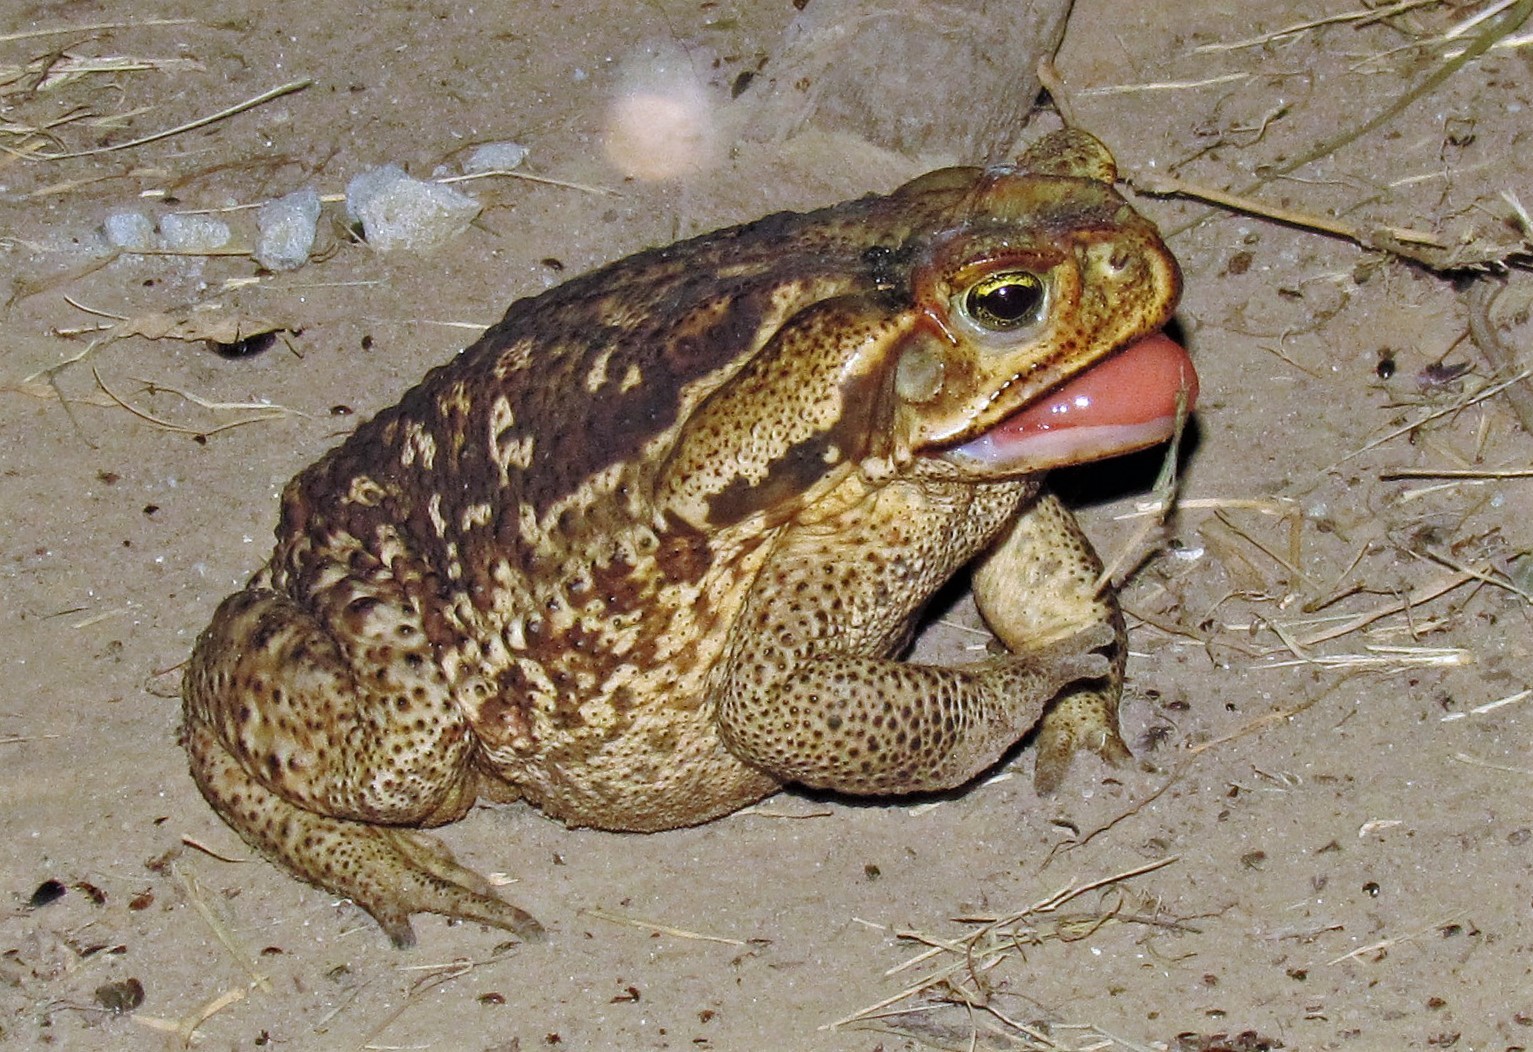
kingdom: Animalia
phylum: Chordata
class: Amphibia
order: Anura
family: Bufonidae
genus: Rhinella
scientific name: Rhinella diptycha
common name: Cope's toad
